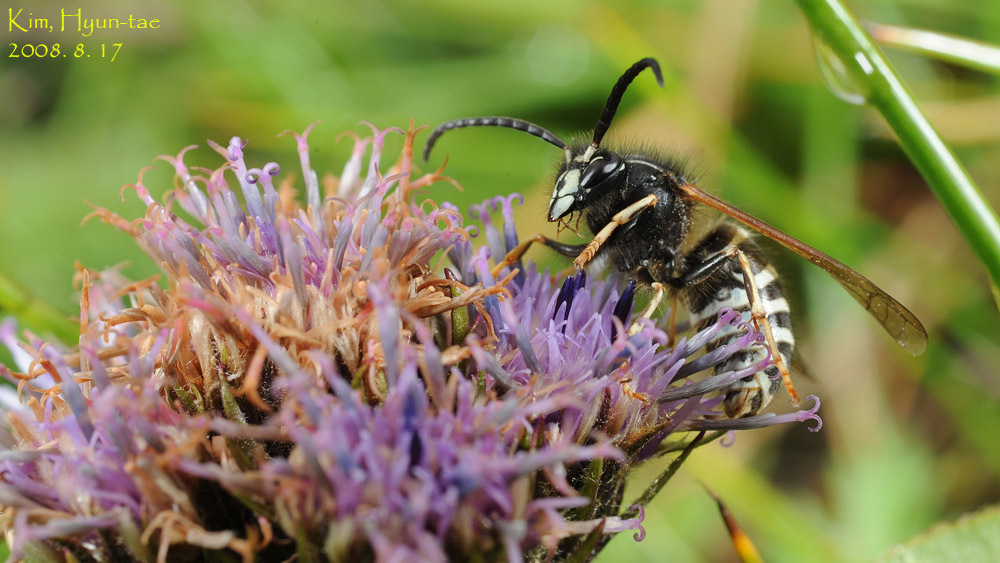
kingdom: Animalia
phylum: Arthropoda
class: Insecta
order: Hymenoptera
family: Vespidae
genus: Dolichovespula
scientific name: Dolichovespula pacifica
